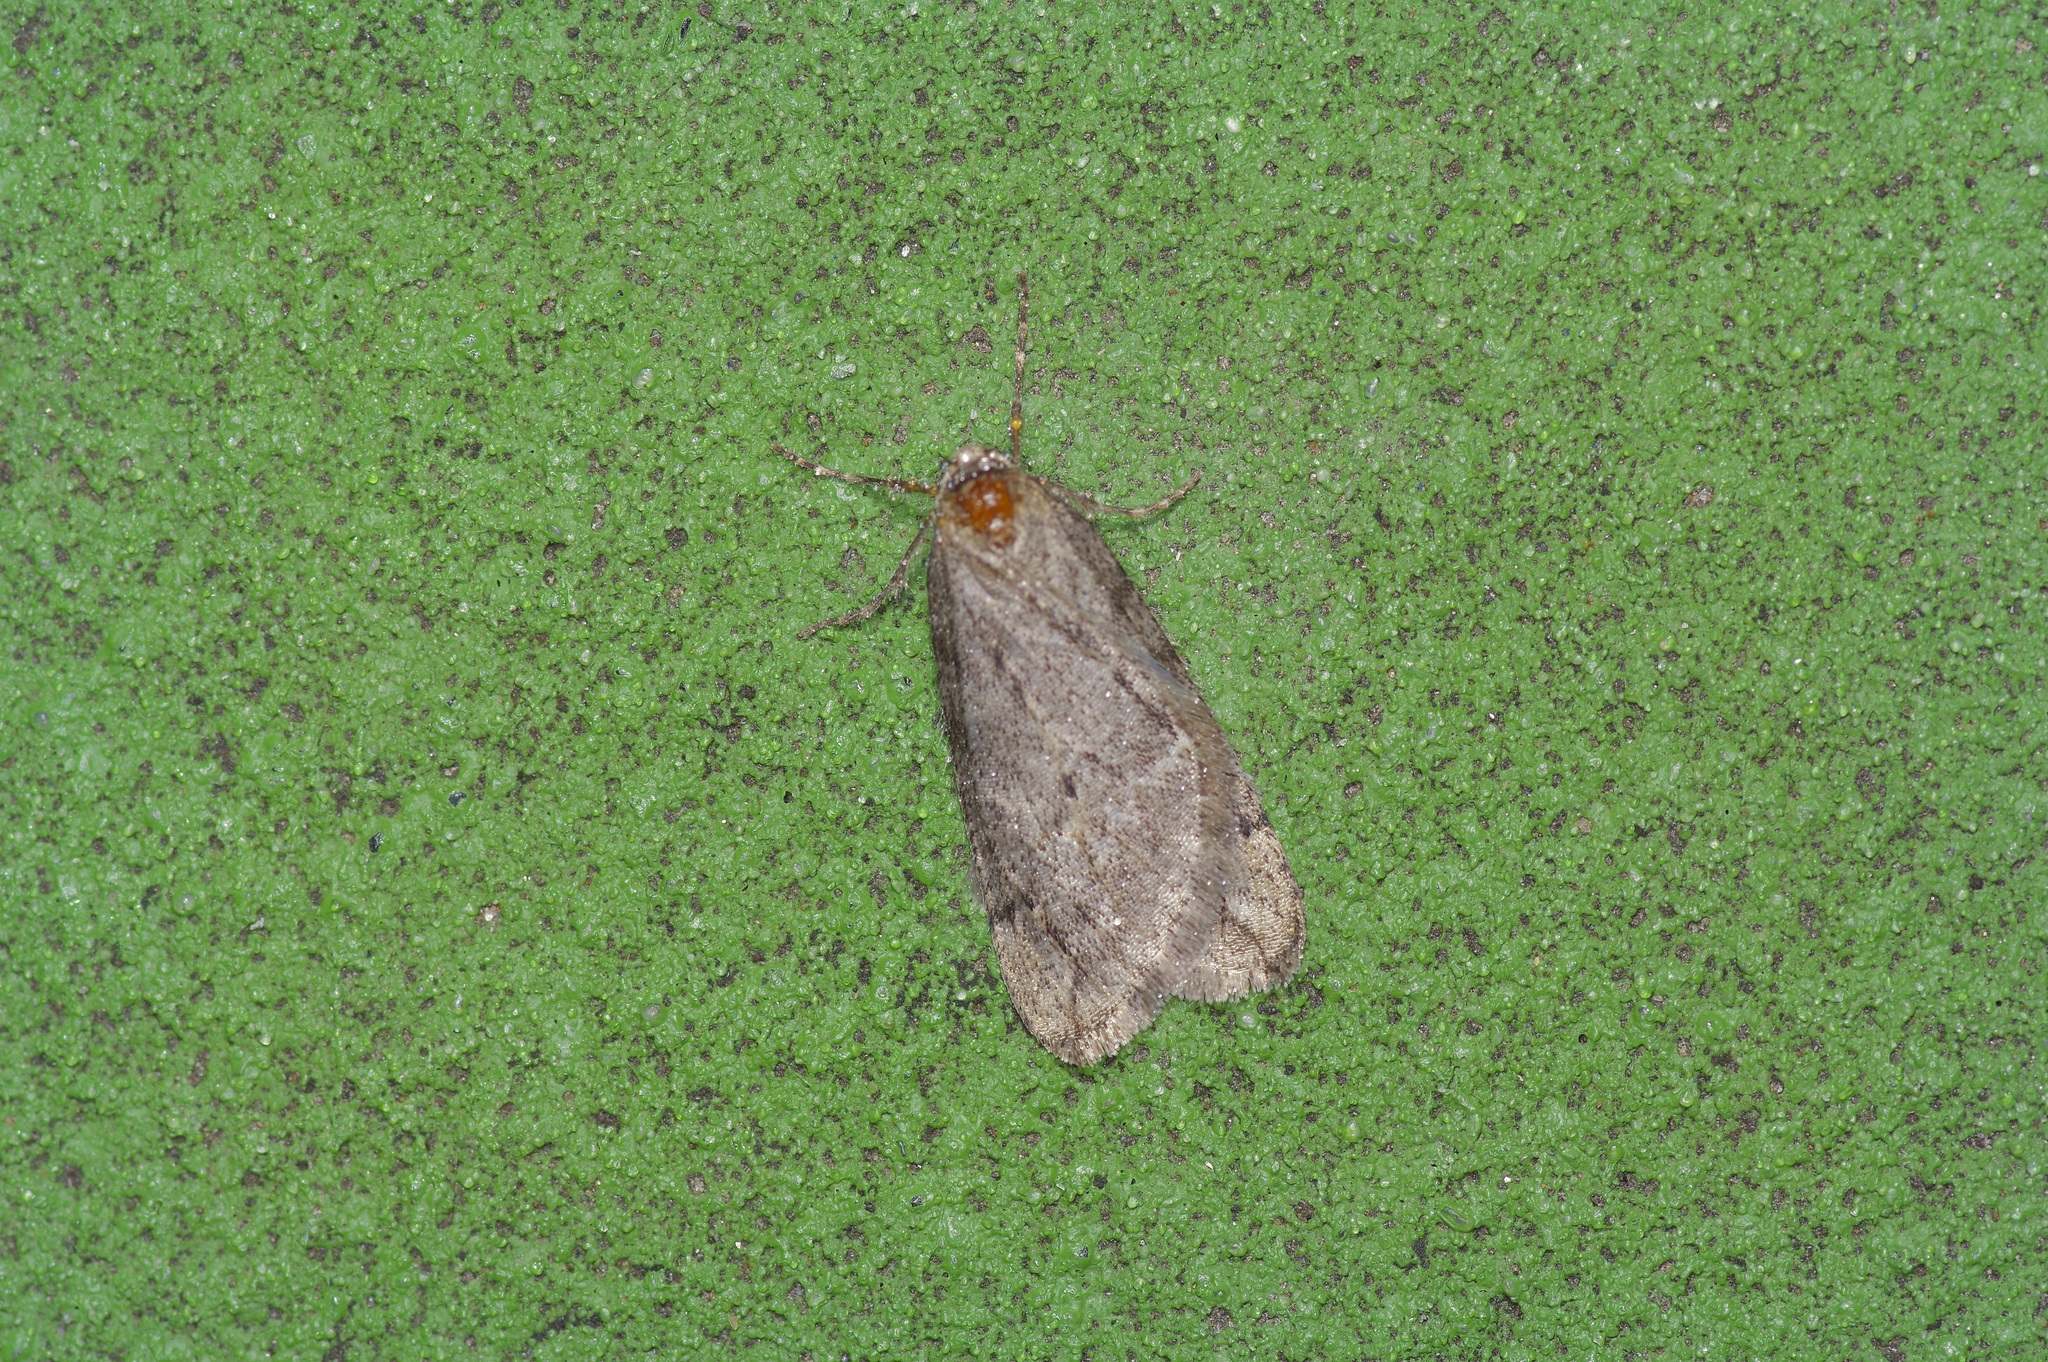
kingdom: Animalia
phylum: Arthropoda
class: Insecta
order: Lepidoptera
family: Geometridae
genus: Paleacrita
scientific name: Paleacrita vernata
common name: Spring cankerworm
